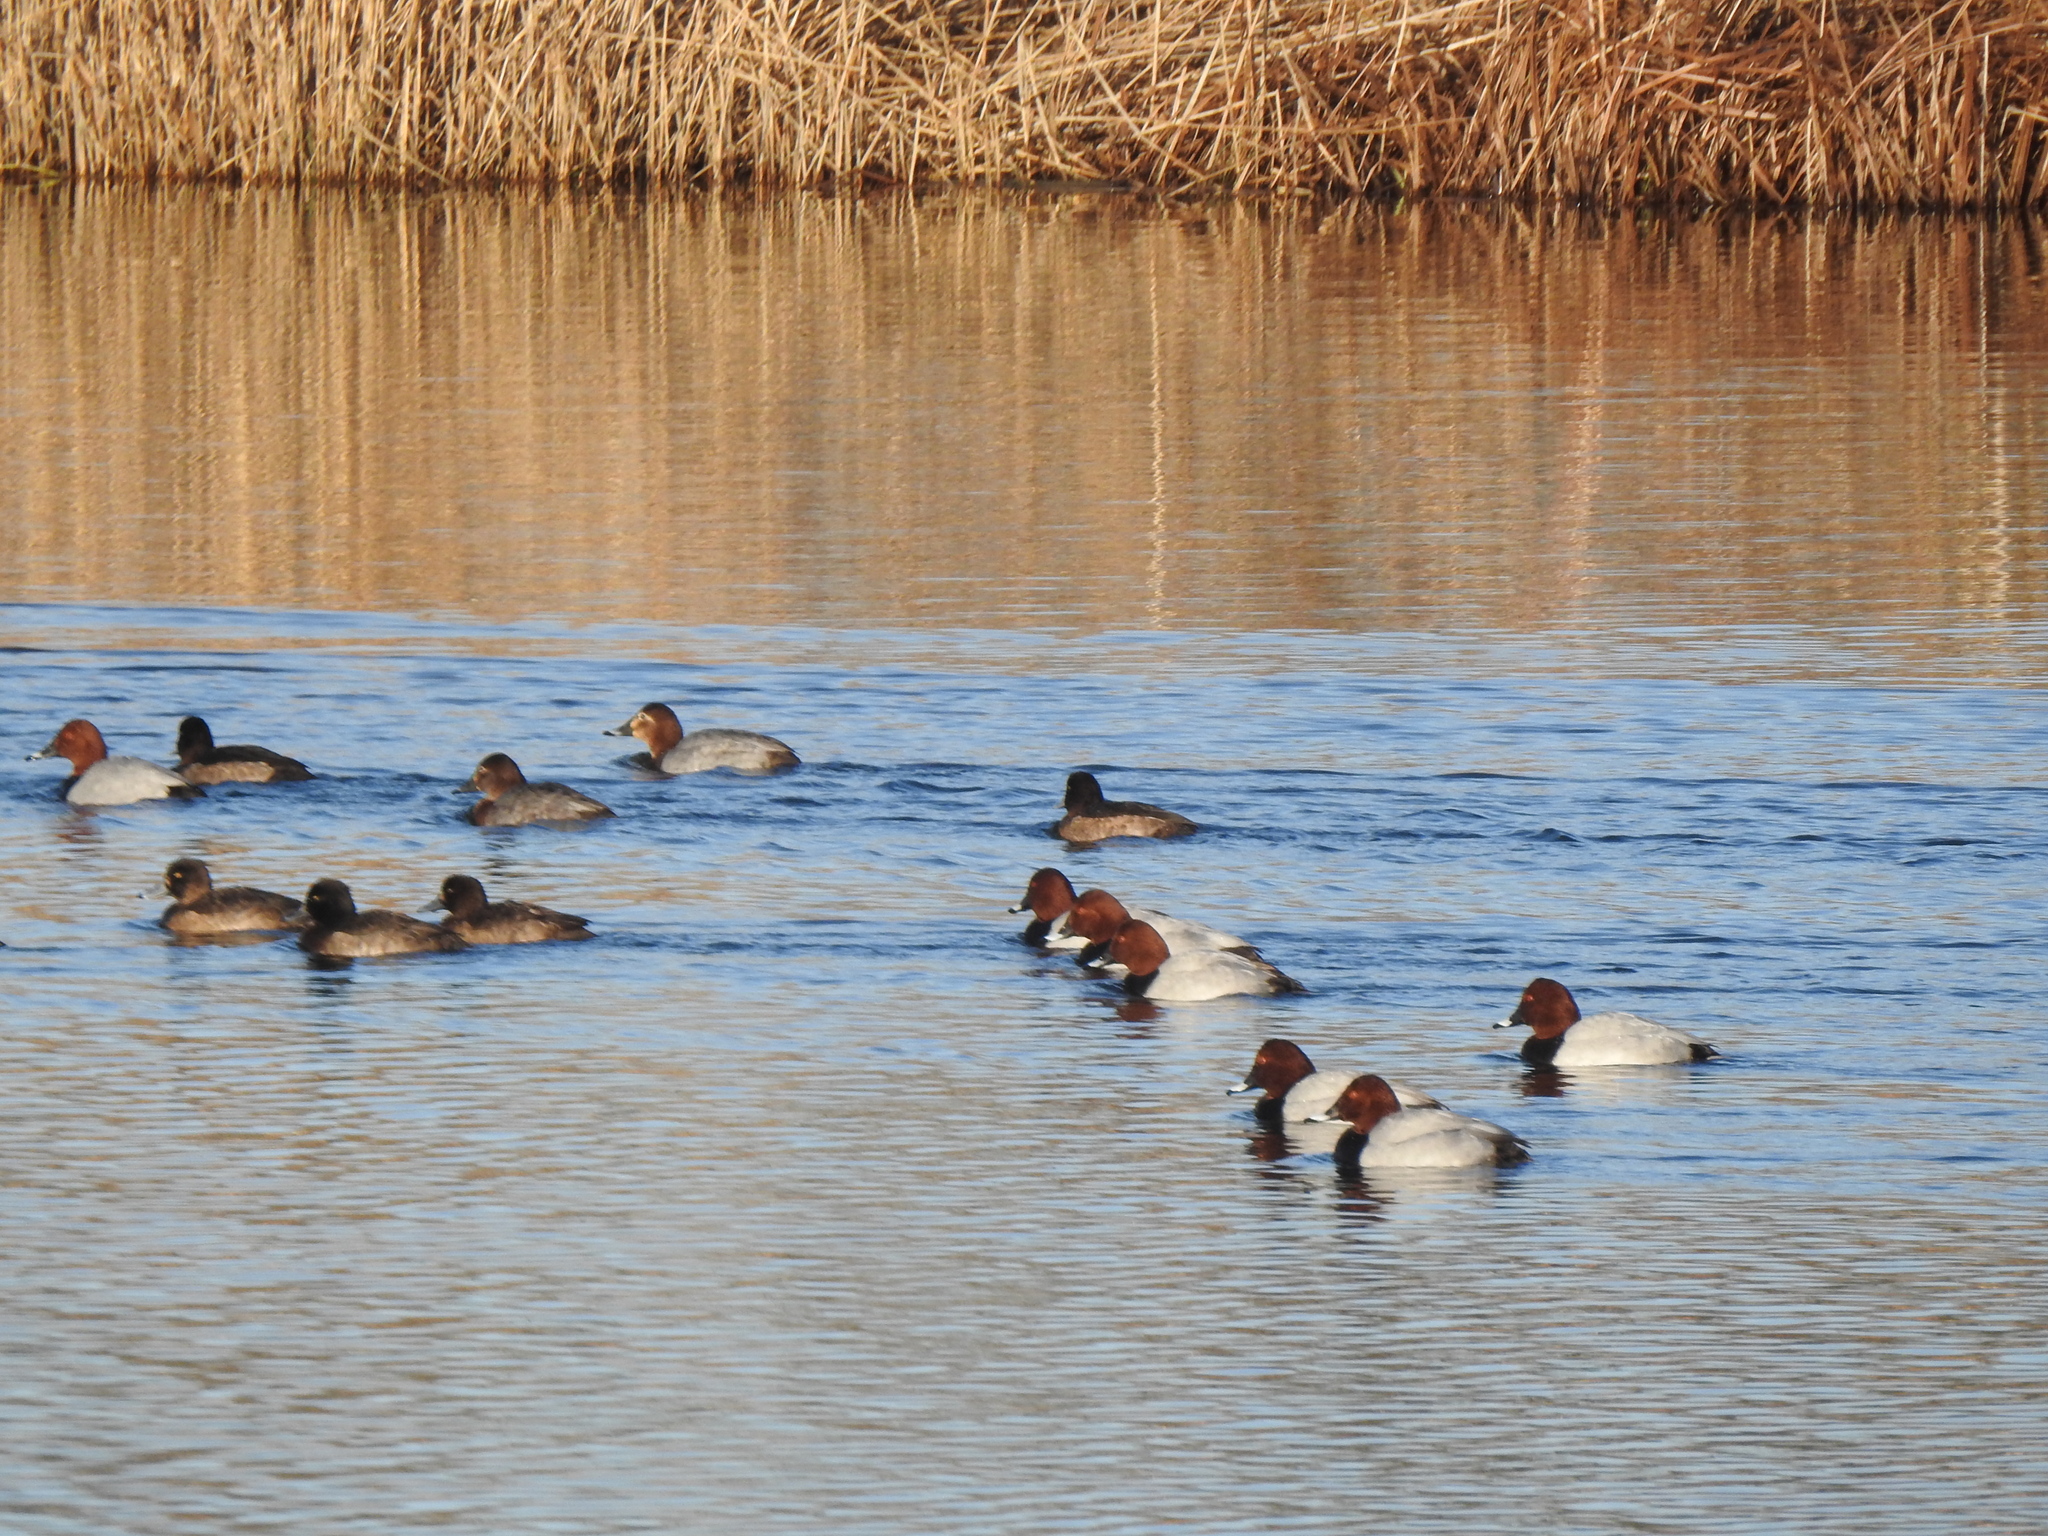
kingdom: Animalia
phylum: Chordata
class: Aves
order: Anseriformes
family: Anatidae
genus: Aythya
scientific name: Aythya ferina
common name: Common pochard
